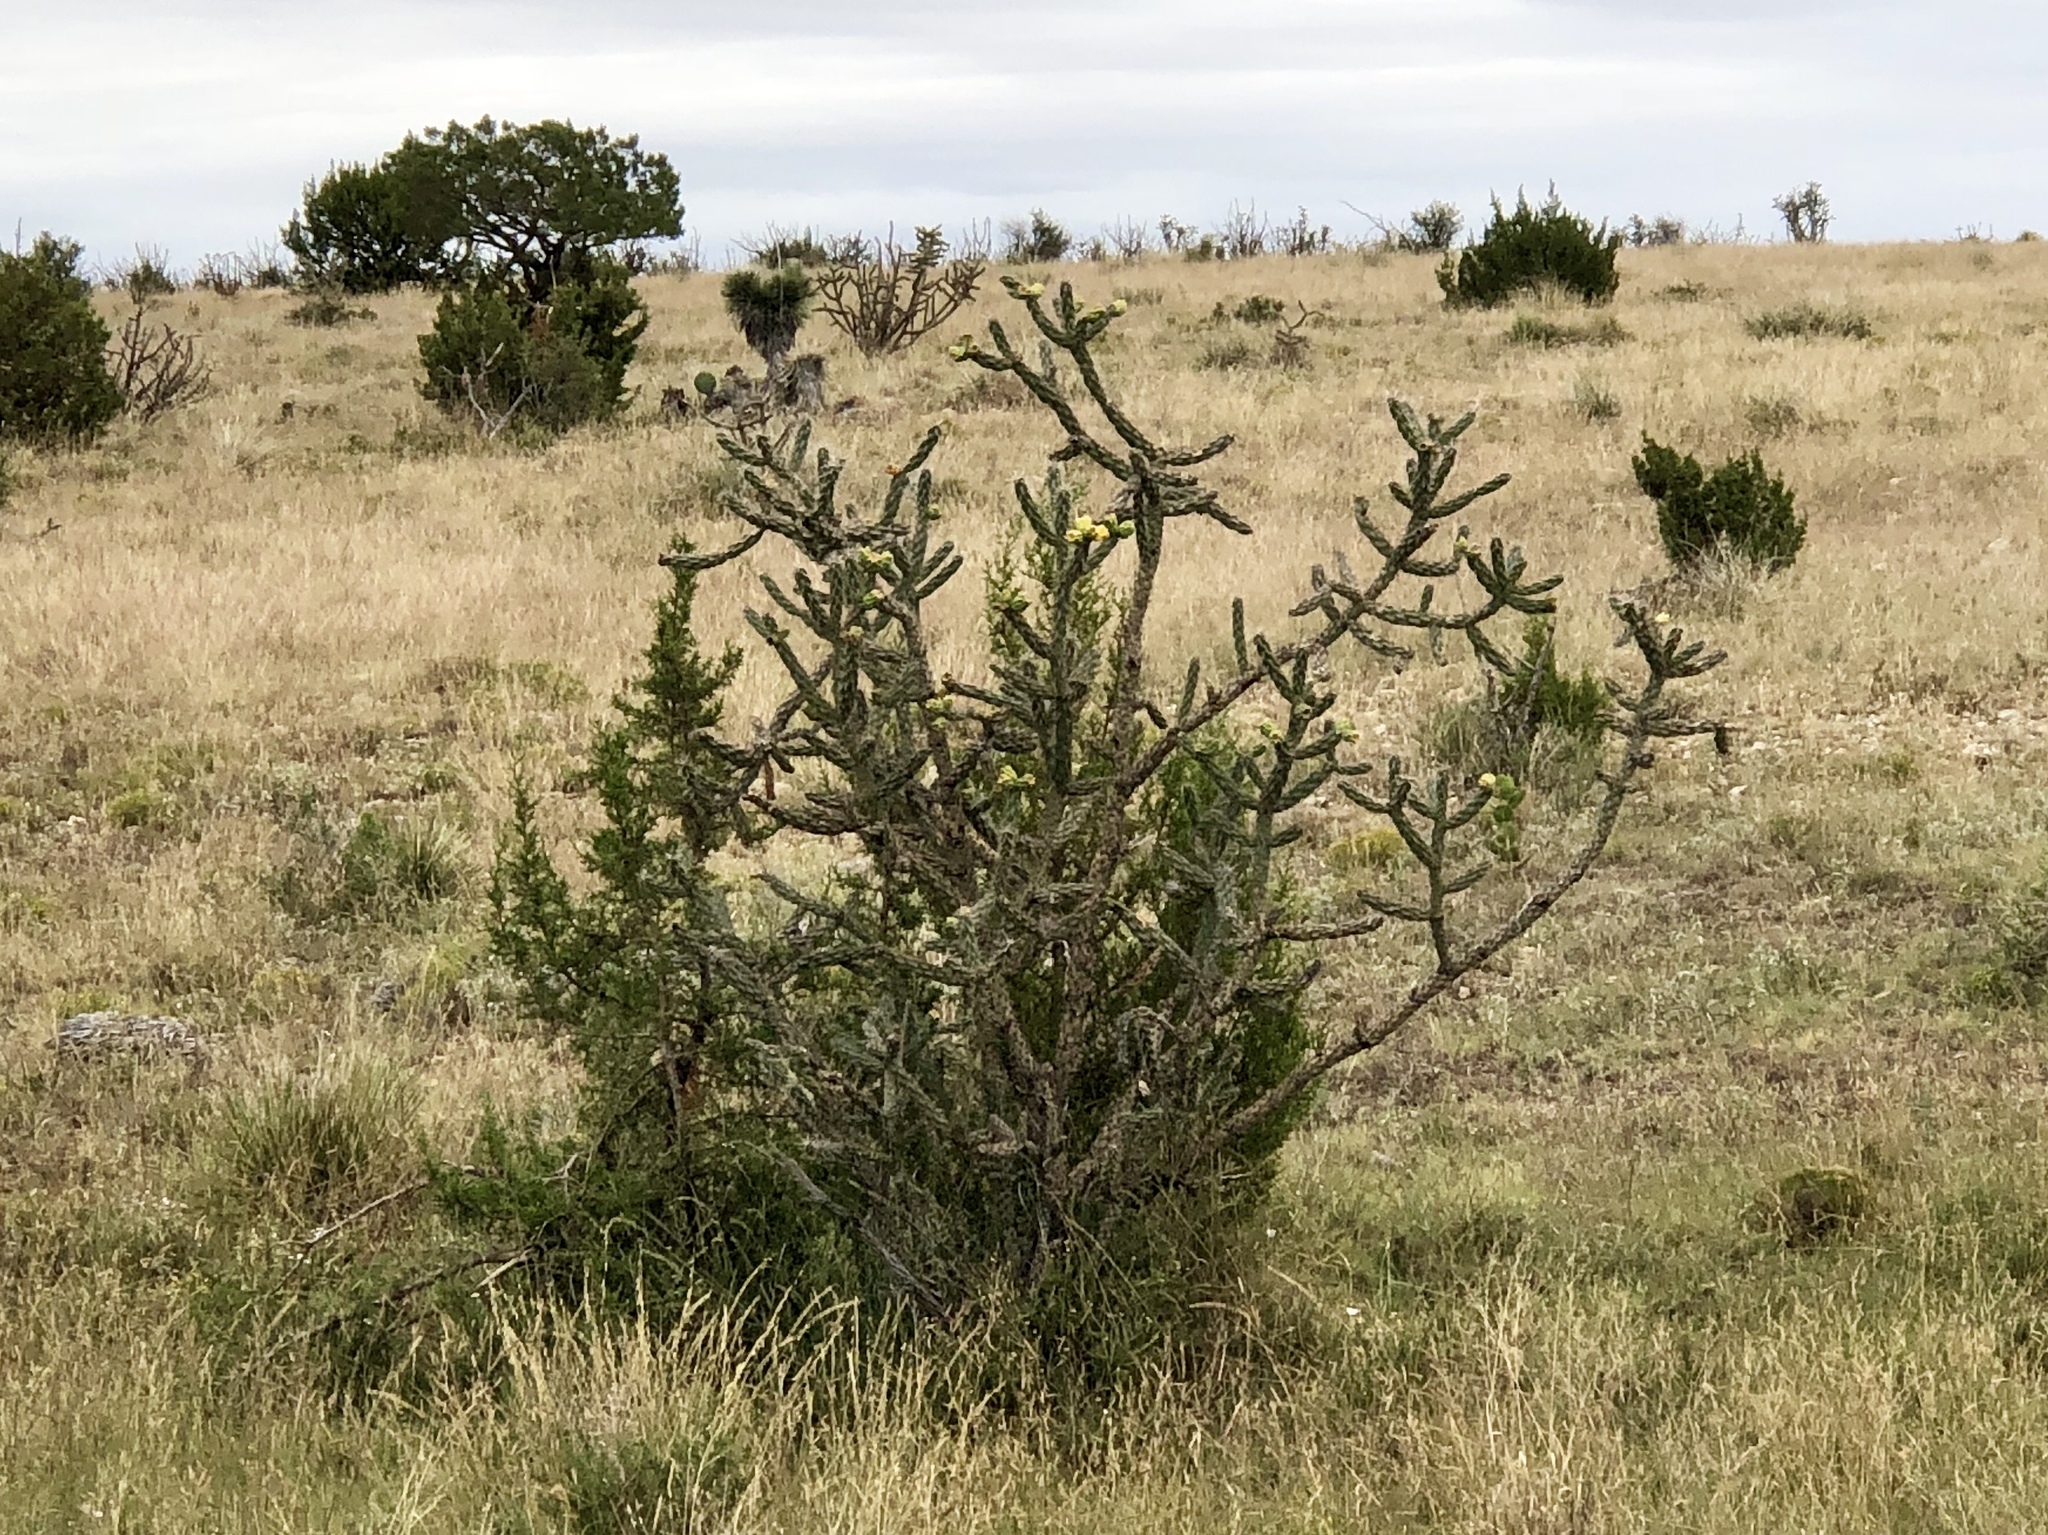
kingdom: Plantae
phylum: Tracheophyta
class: Magnoliopsida
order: Caryophyllales
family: Cactaceae
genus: Cylindropuntia
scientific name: Cylindropuntia imbricata
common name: Candelabrum cactus
